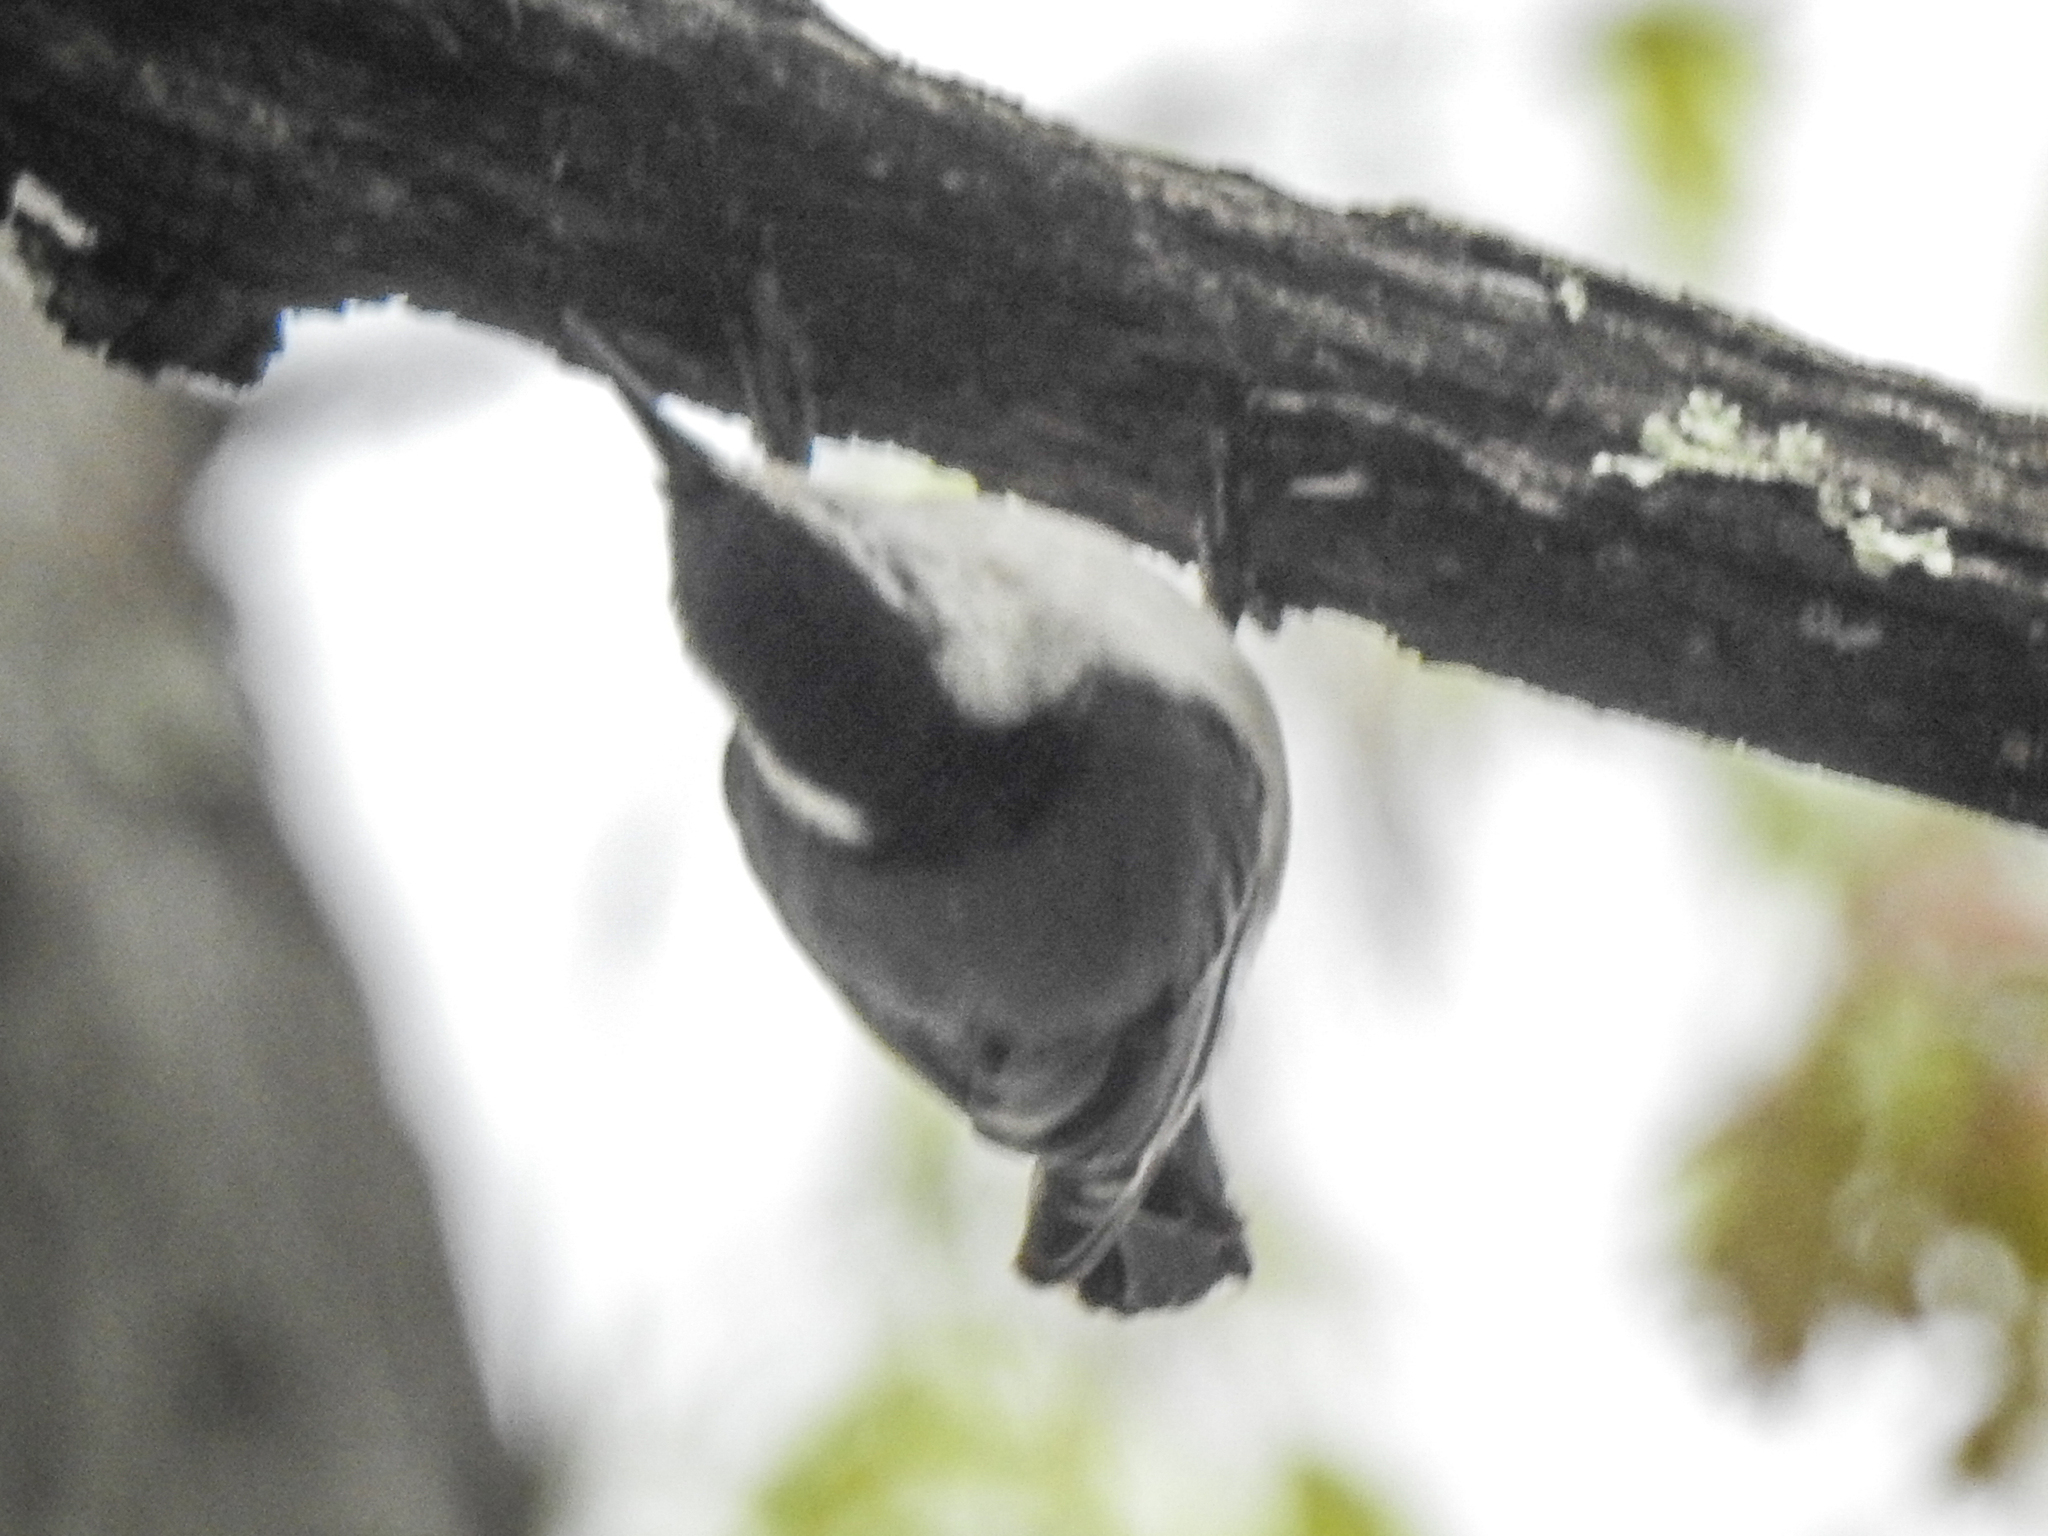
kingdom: Animalia
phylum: Chordata
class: Aves
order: Passeriformes
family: Sittidae
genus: Sitta
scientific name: Sitta carolinensis
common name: White-breasted nuthatch
